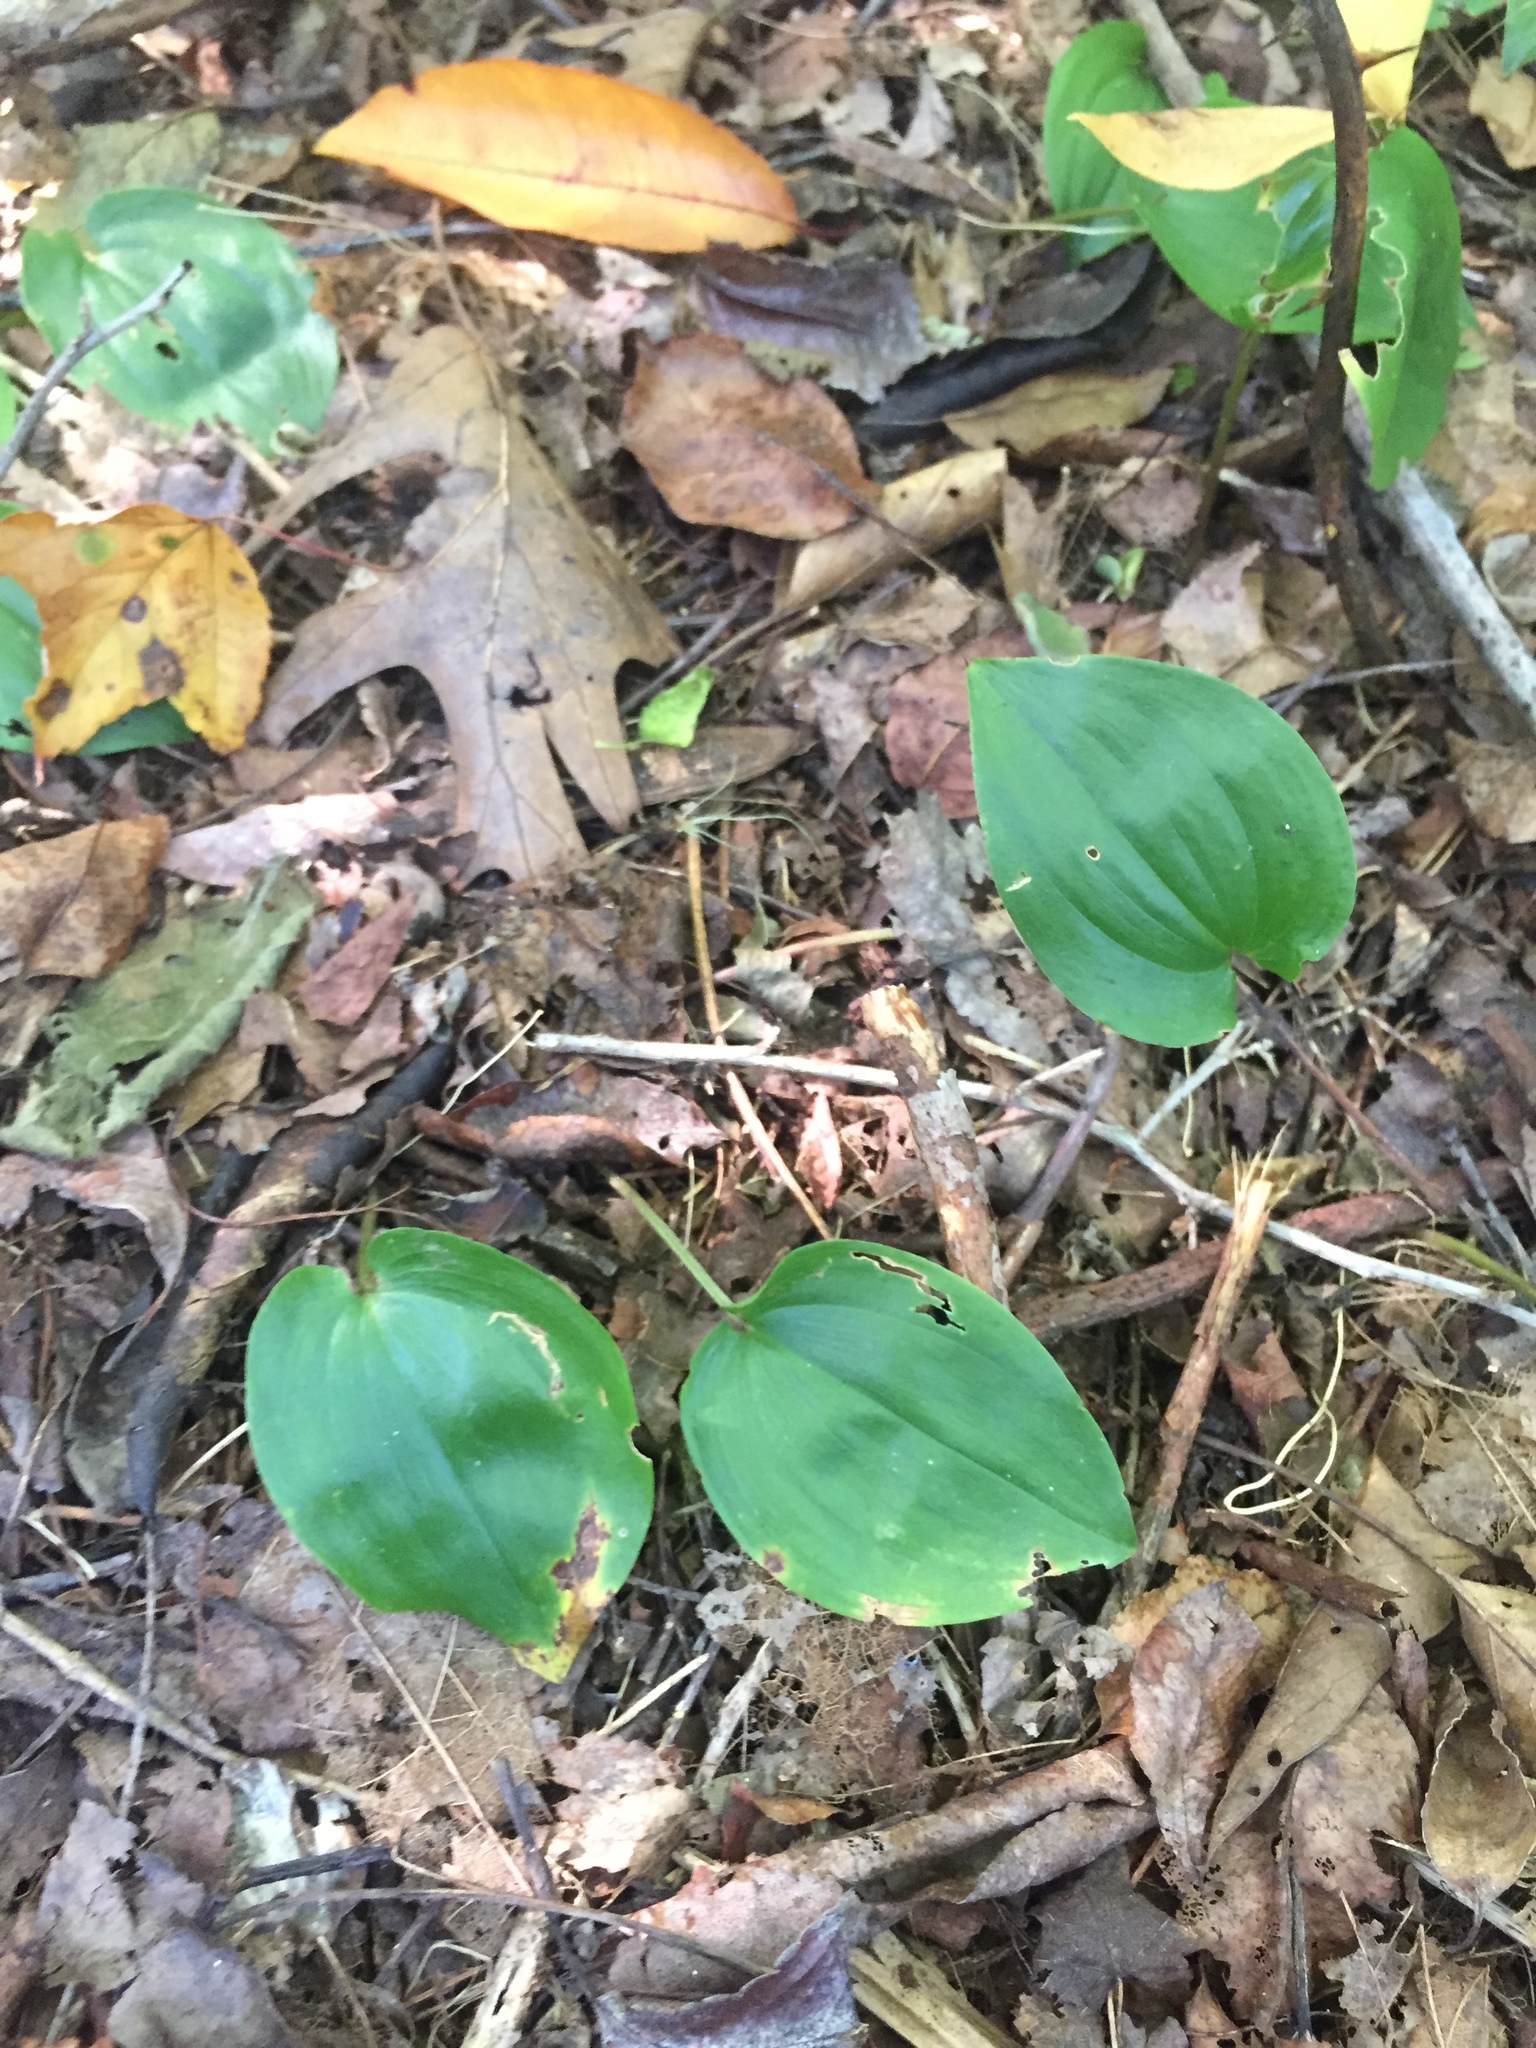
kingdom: Plantae
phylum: Tracheophyta
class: Liliopsida
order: Asparagales
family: Asparagaceae
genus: Maianthemum
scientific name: Maianthemum canadense
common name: False lily-of-the-valley
